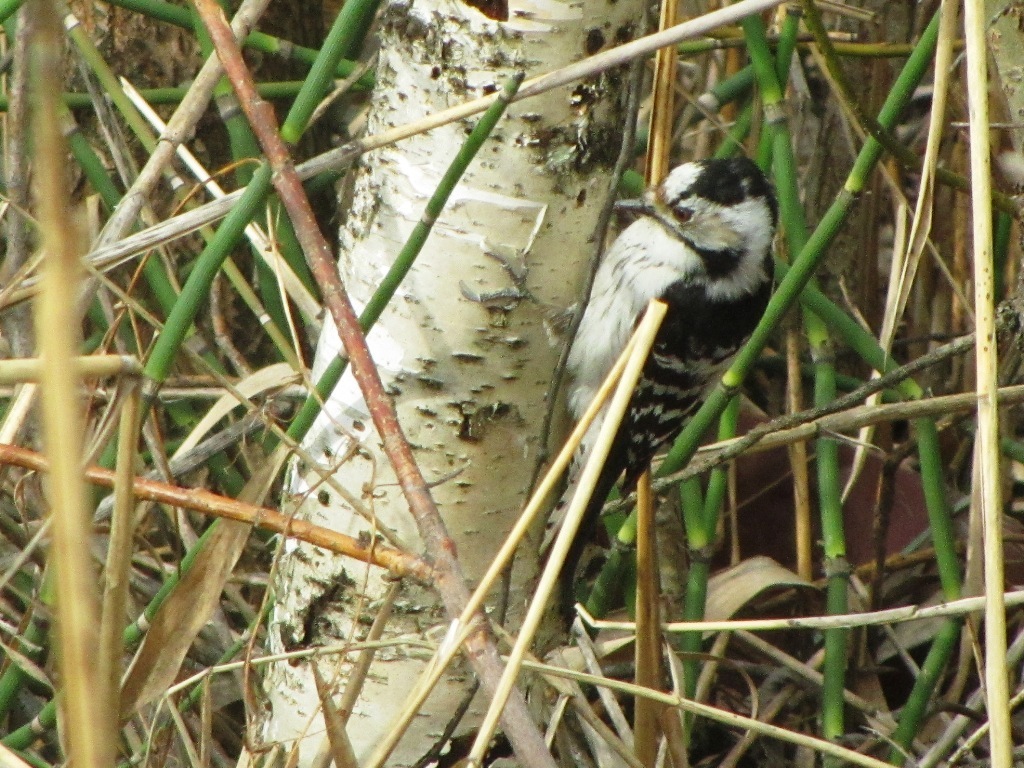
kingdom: Animalia
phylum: Chordata
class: Aves
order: Piciformes
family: Picidae
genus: Dryobates
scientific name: Dryobates minor
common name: Lesser spotted woodpecker
